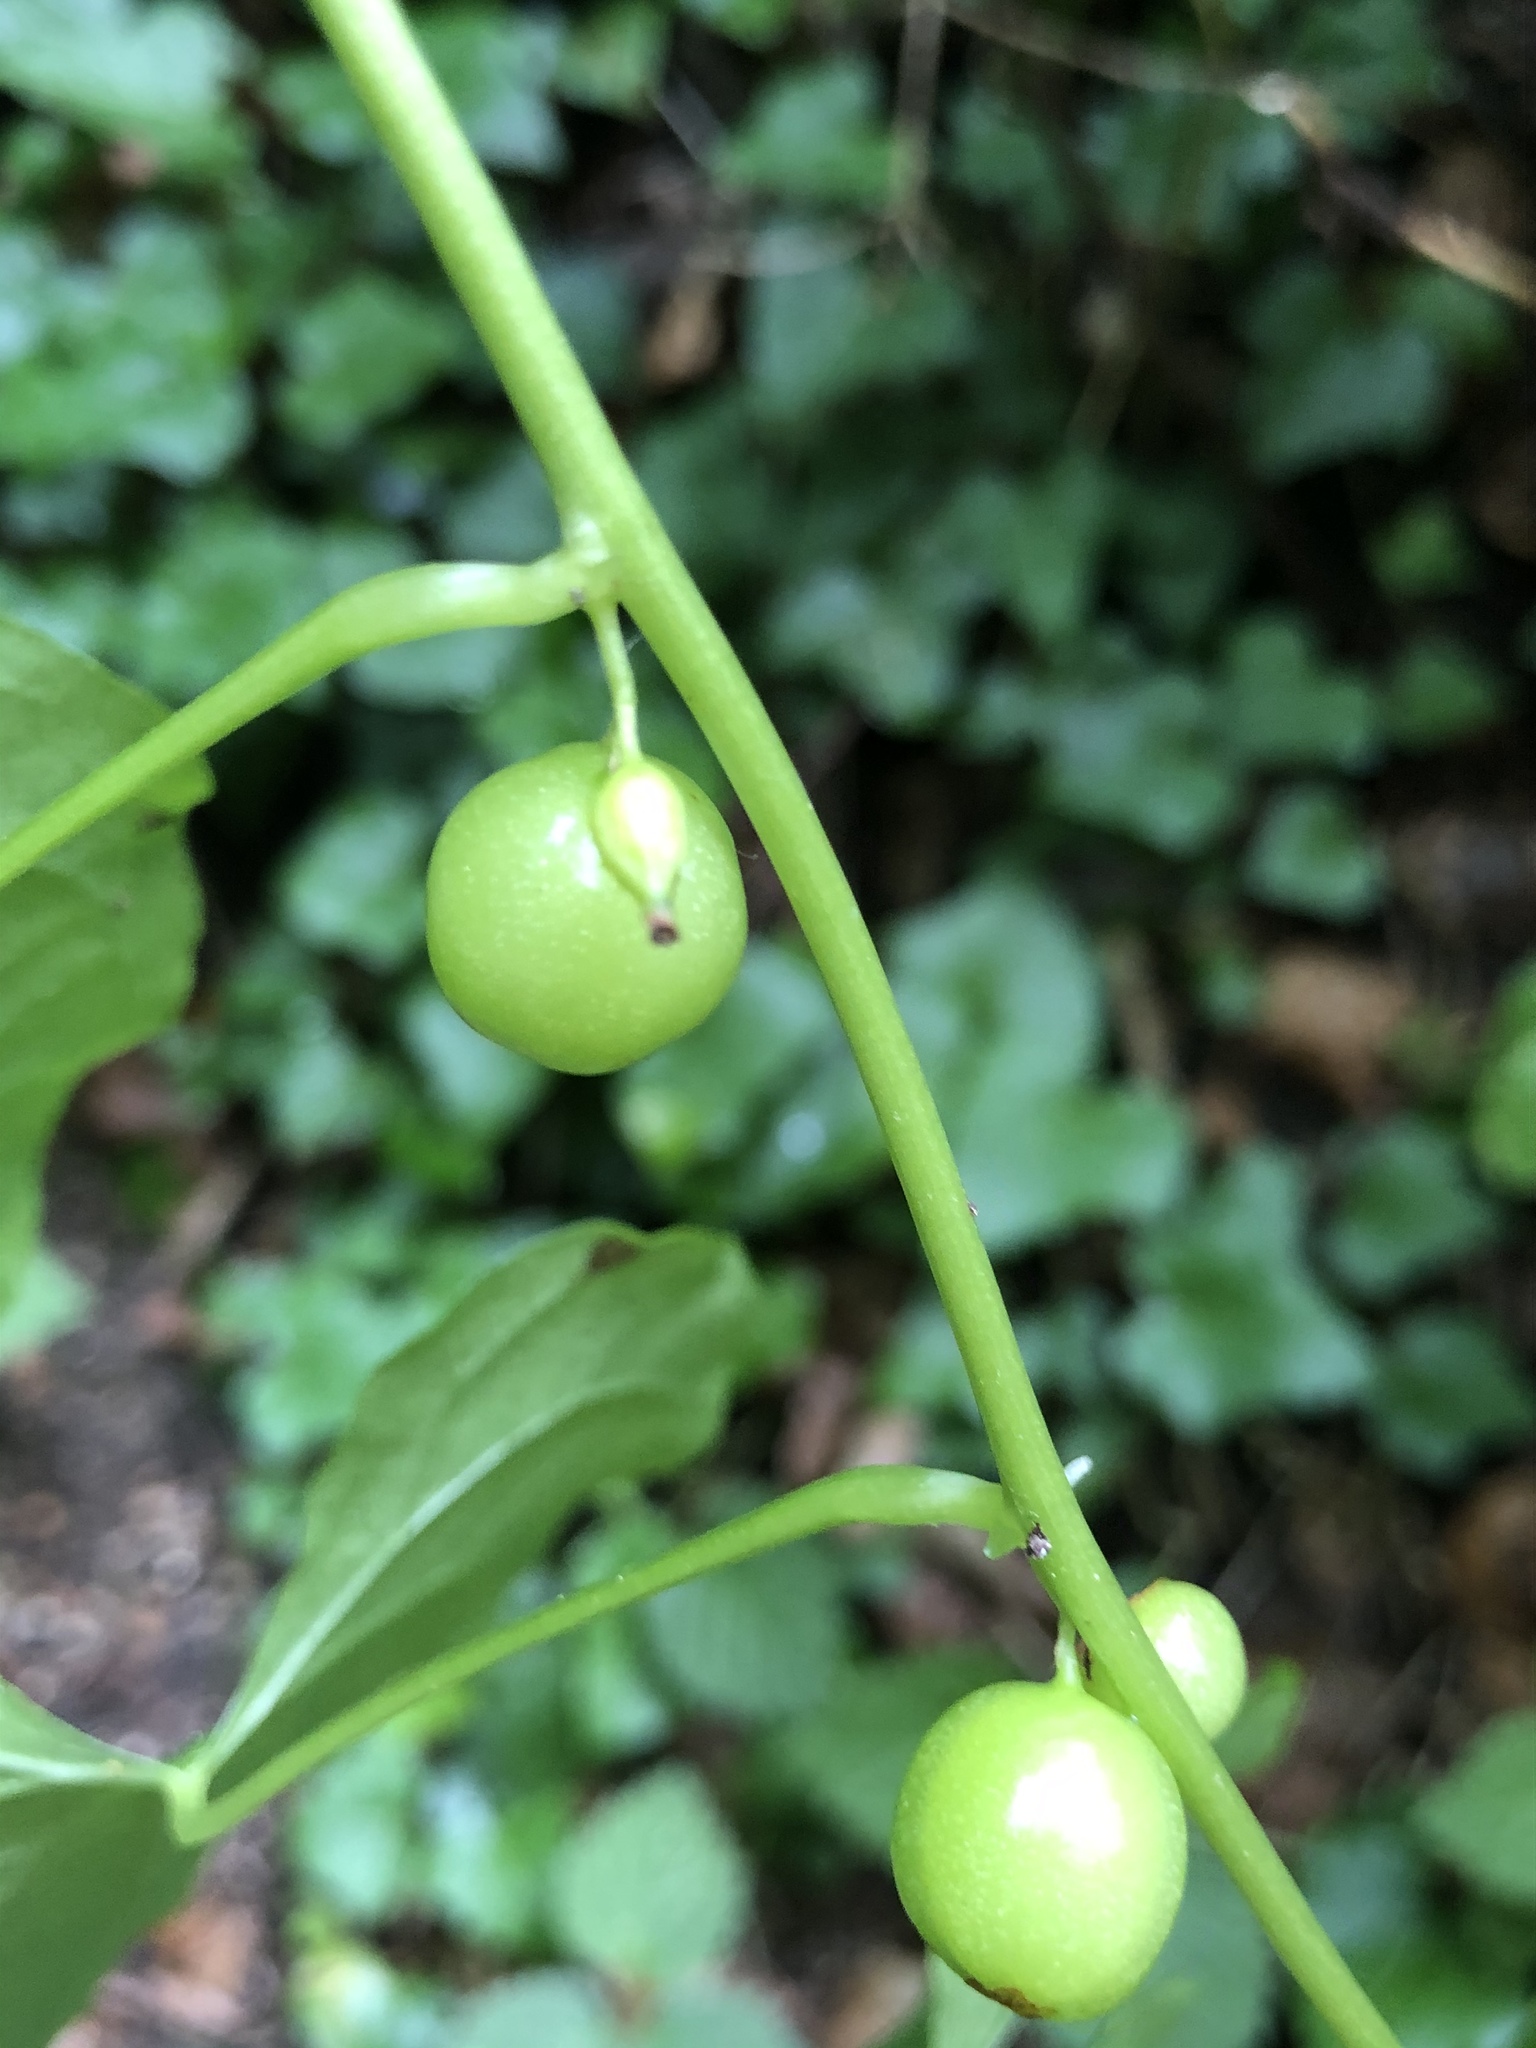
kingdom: Plantae
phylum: Tracheophyta
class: Liliopsida
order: Dioscoreales
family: Dioscoreaceae
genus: Dioscorea
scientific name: Dioscorea communis
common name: Black-bindweed
